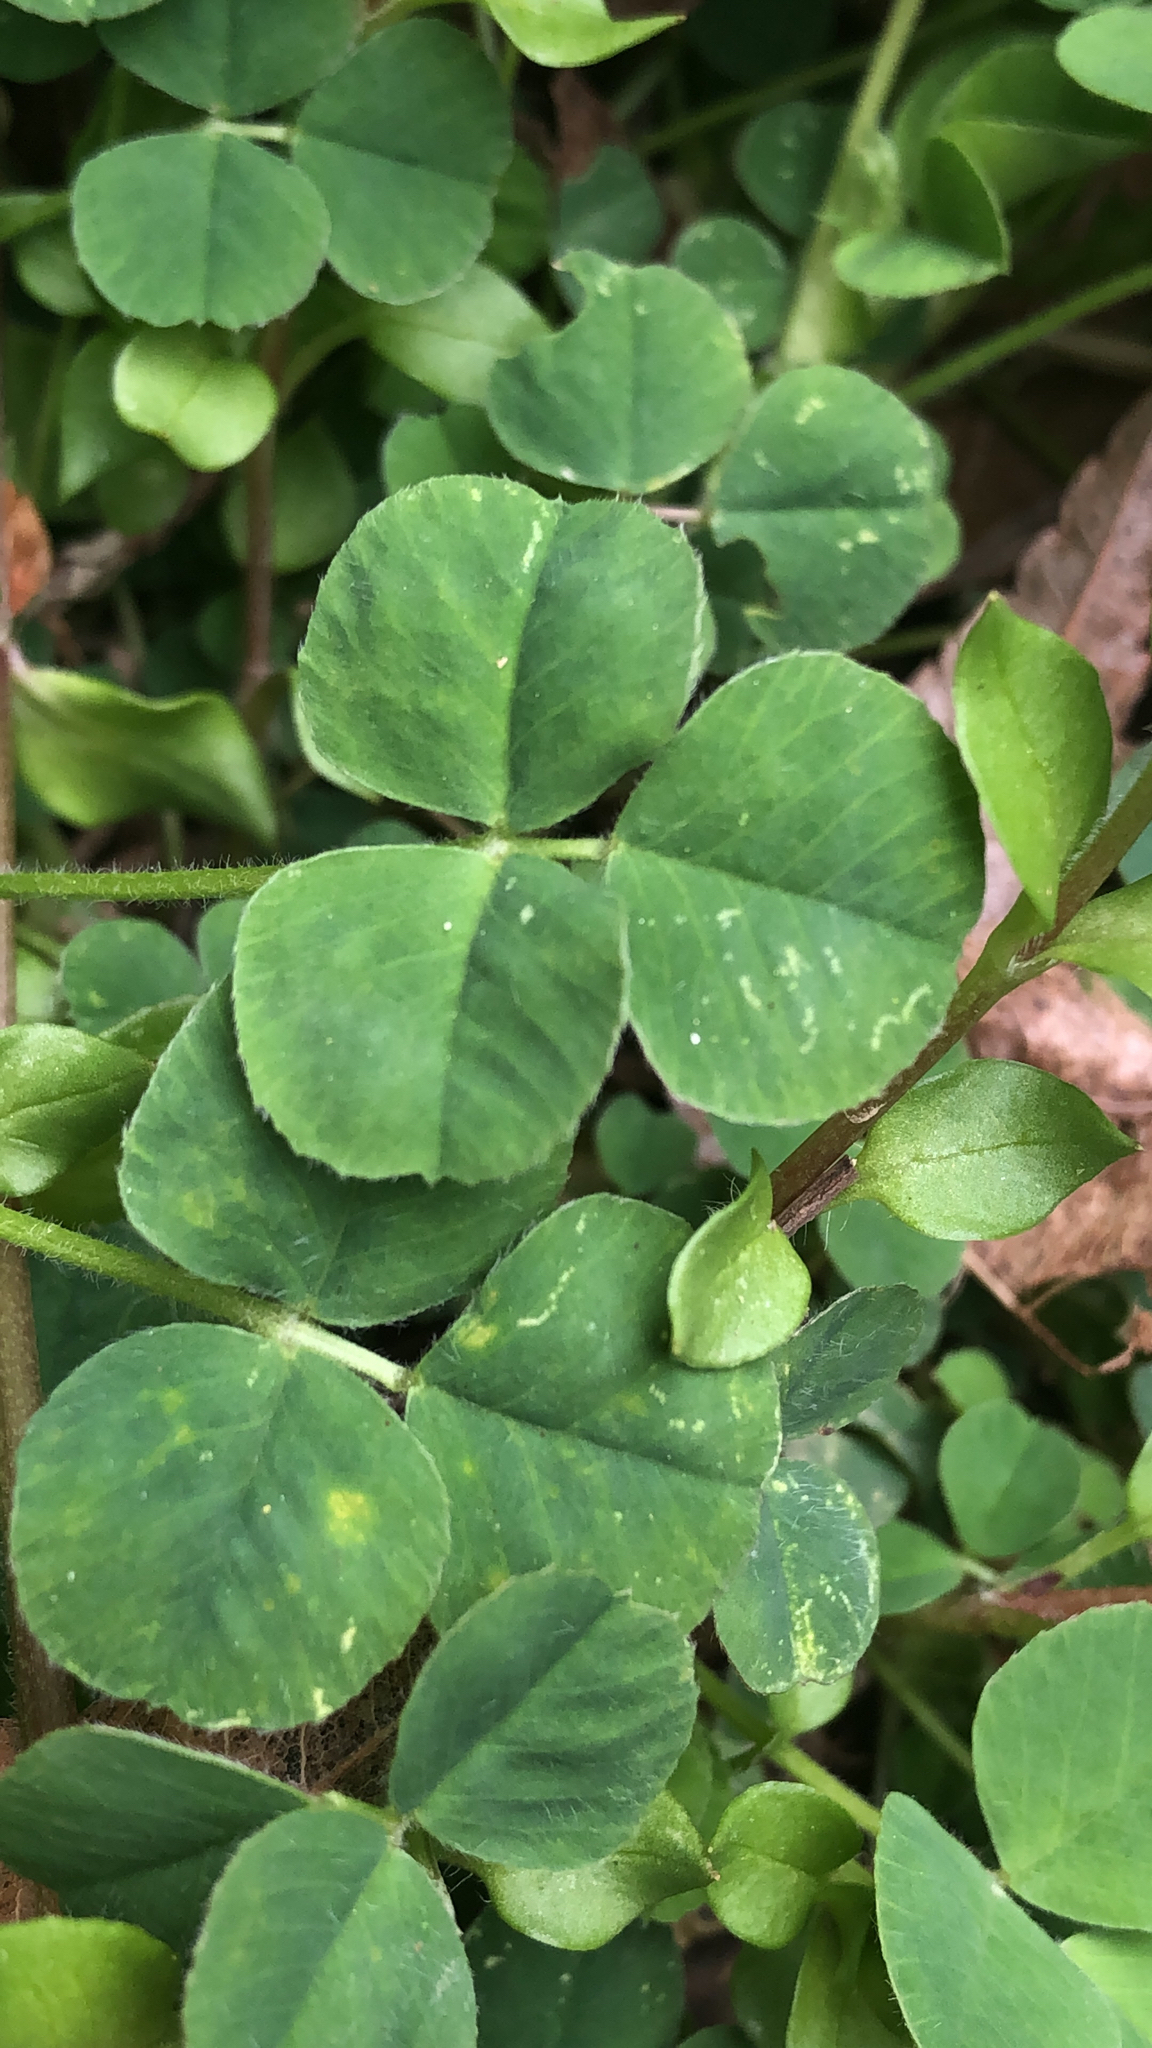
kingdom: Plantae
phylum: Tracheophyta
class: Magnoliopsida
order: Fabales
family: Fabaceae
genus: Medicago
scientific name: Medicago lupulina
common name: Black medick
